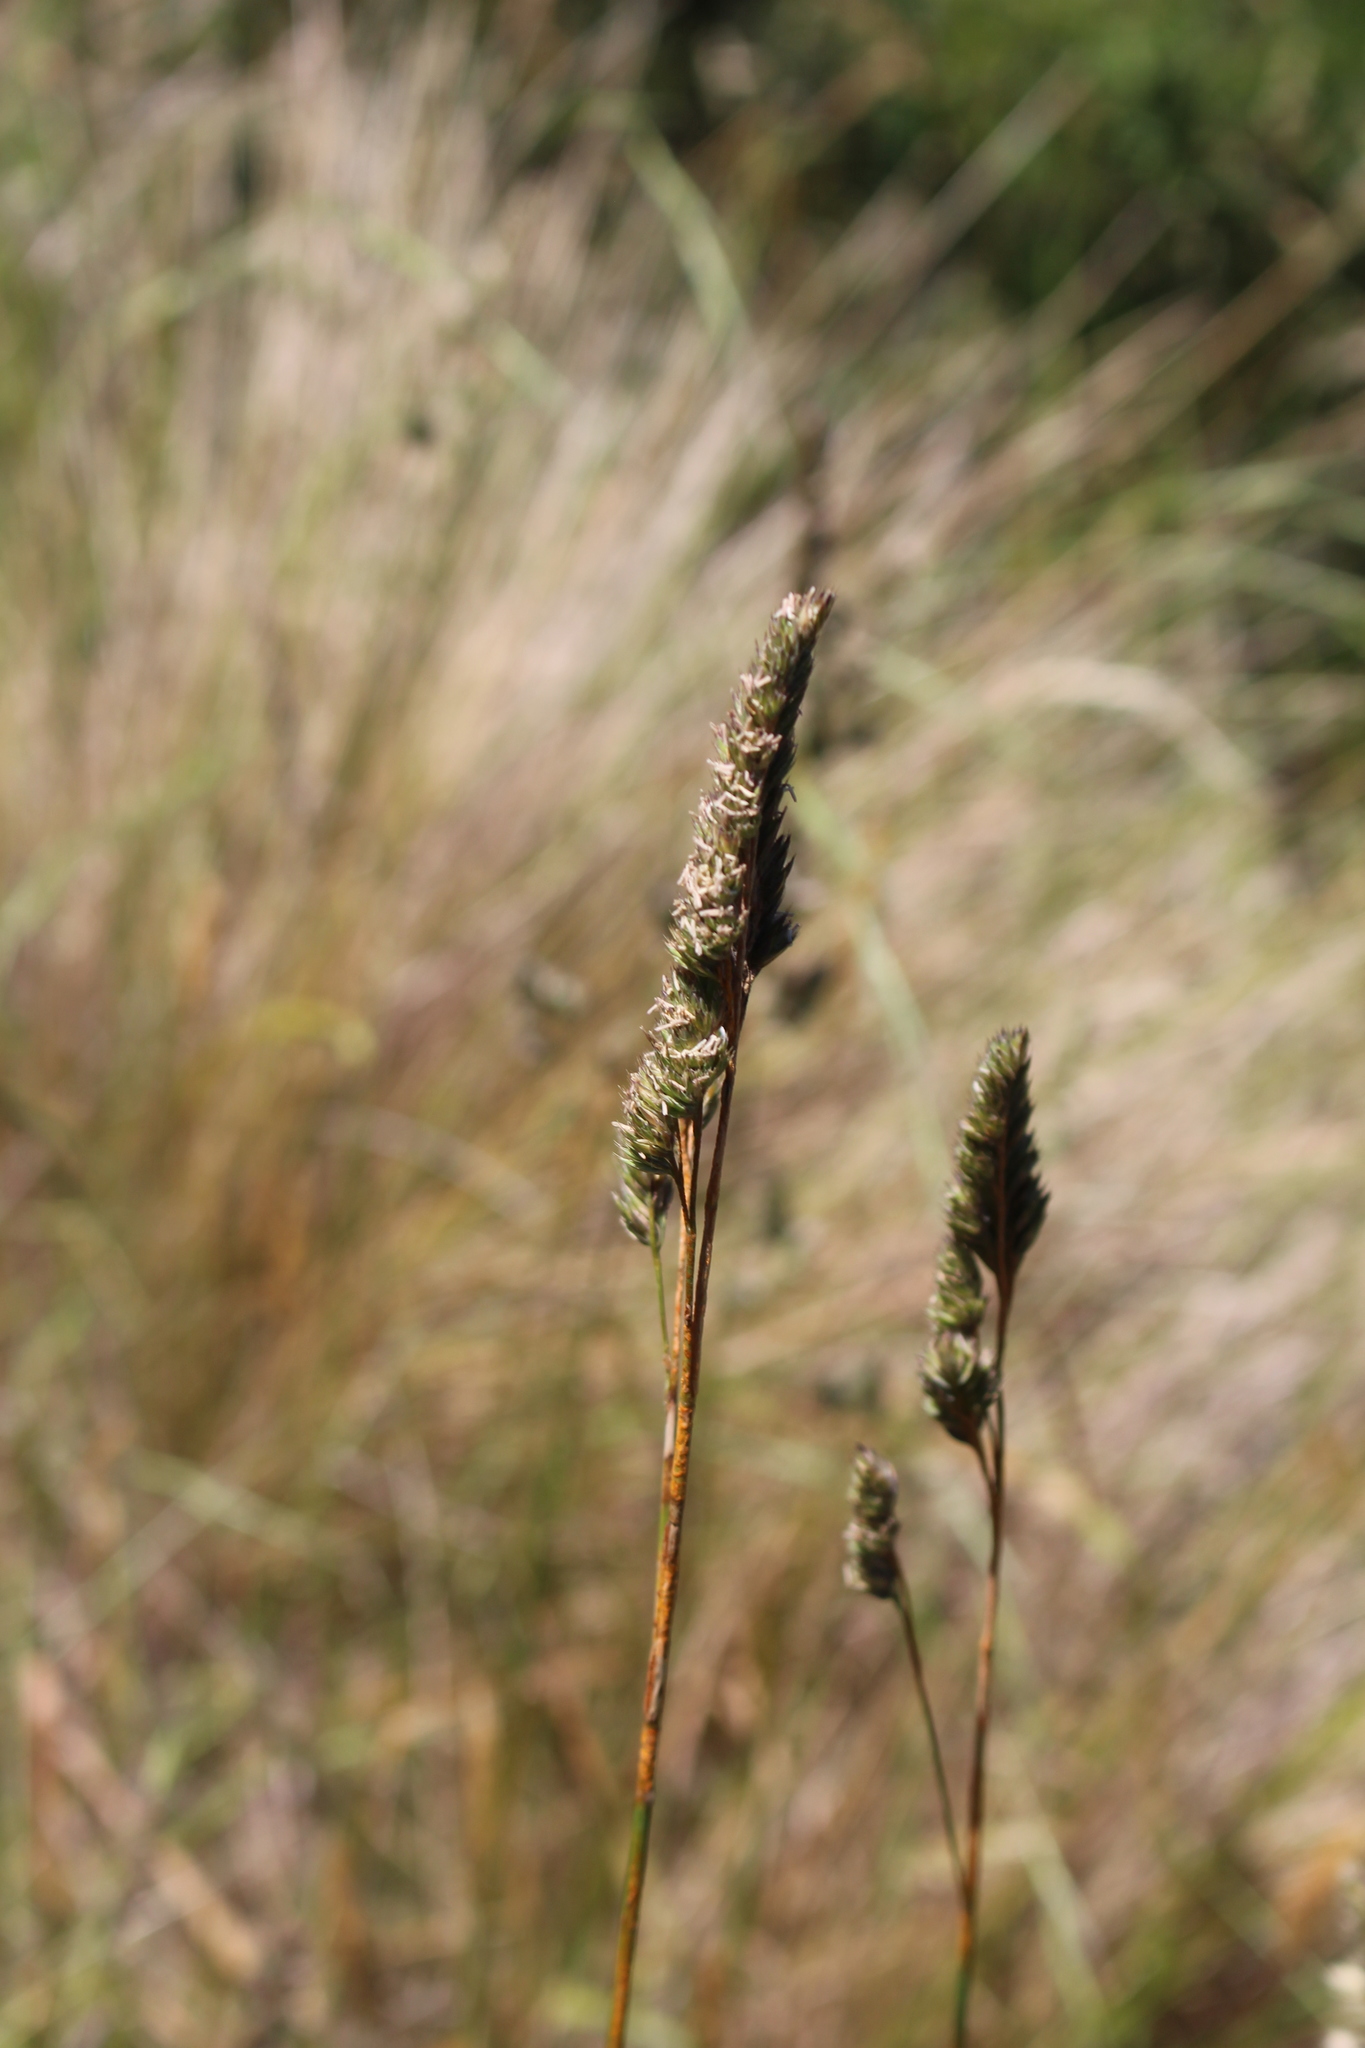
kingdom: Plantae
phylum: Tracheophyta
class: Liliopsida
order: Poales
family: Poaceae
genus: Dactylis
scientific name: Dactylis glomerata
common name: Orchardgrass
